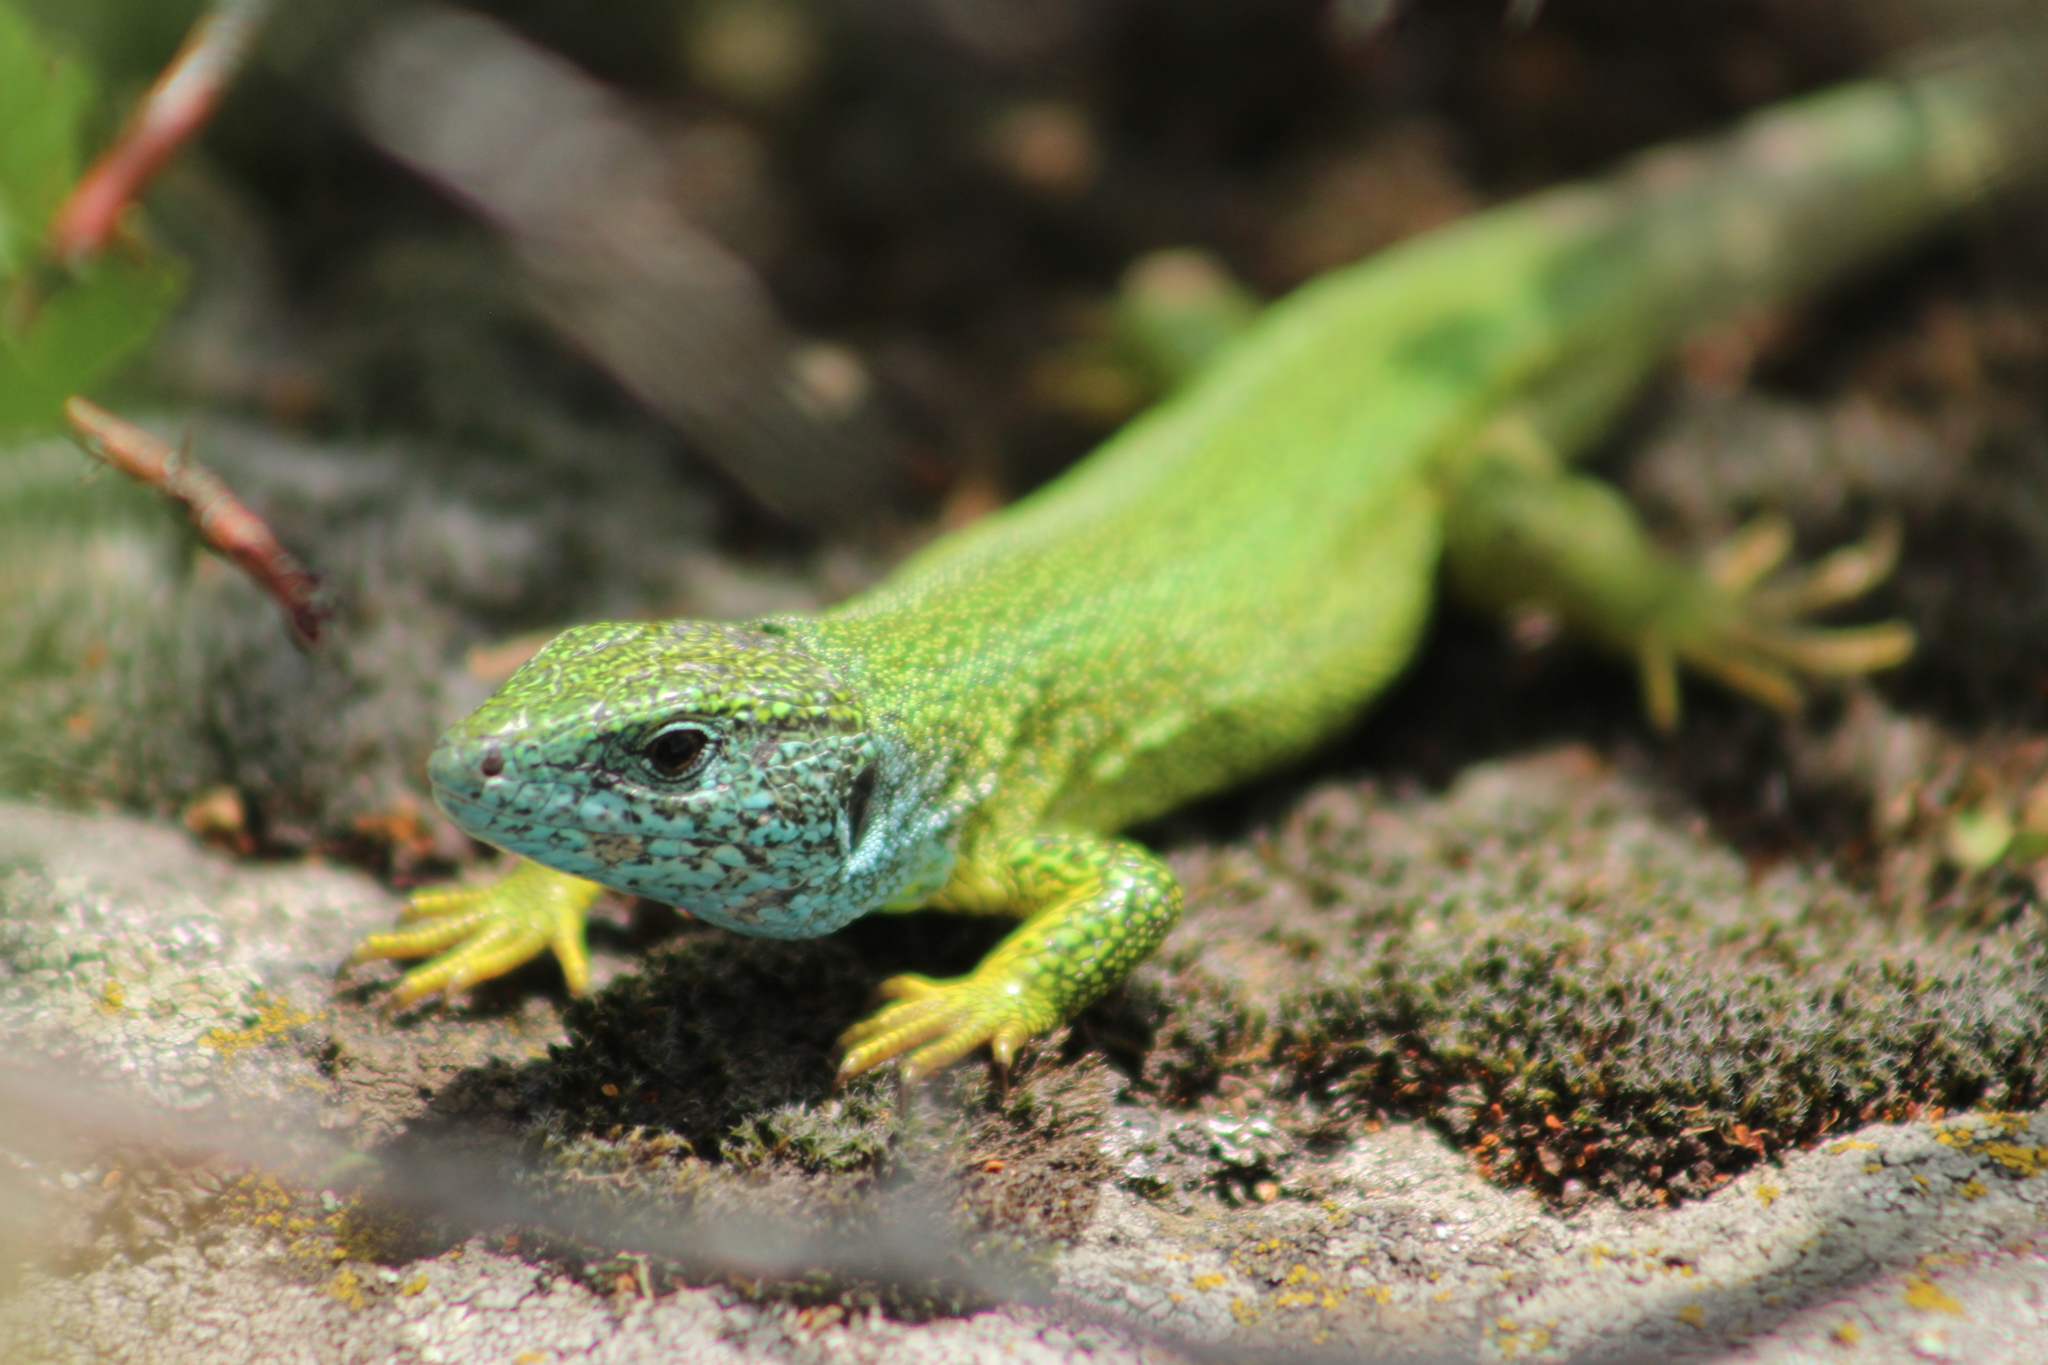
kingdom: Animalia
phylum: Chordata
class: Squamata
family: Lacertidae
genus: Lacerta
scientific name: Lacerta viridis
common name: European green lizard
